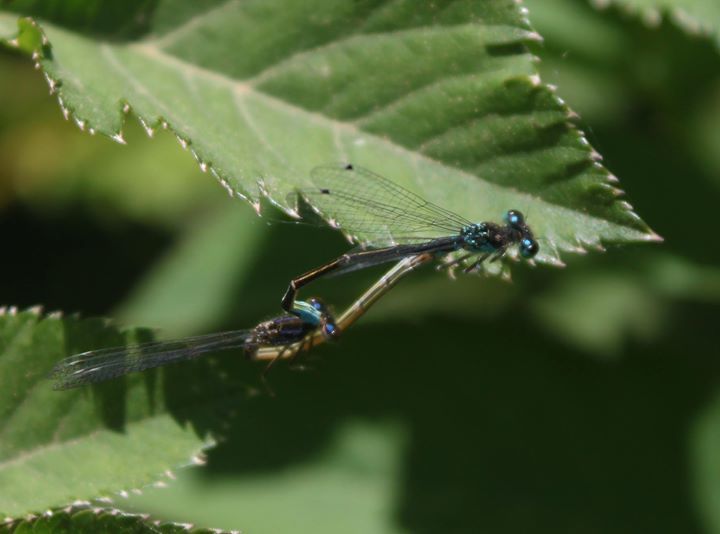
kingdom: Animalia
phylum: Arthropoda
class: Insecta
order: Odonata
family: Coenagrionidae
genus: Ischnura
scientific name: Ischnura elegans
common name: Blue-tailed damselfly
